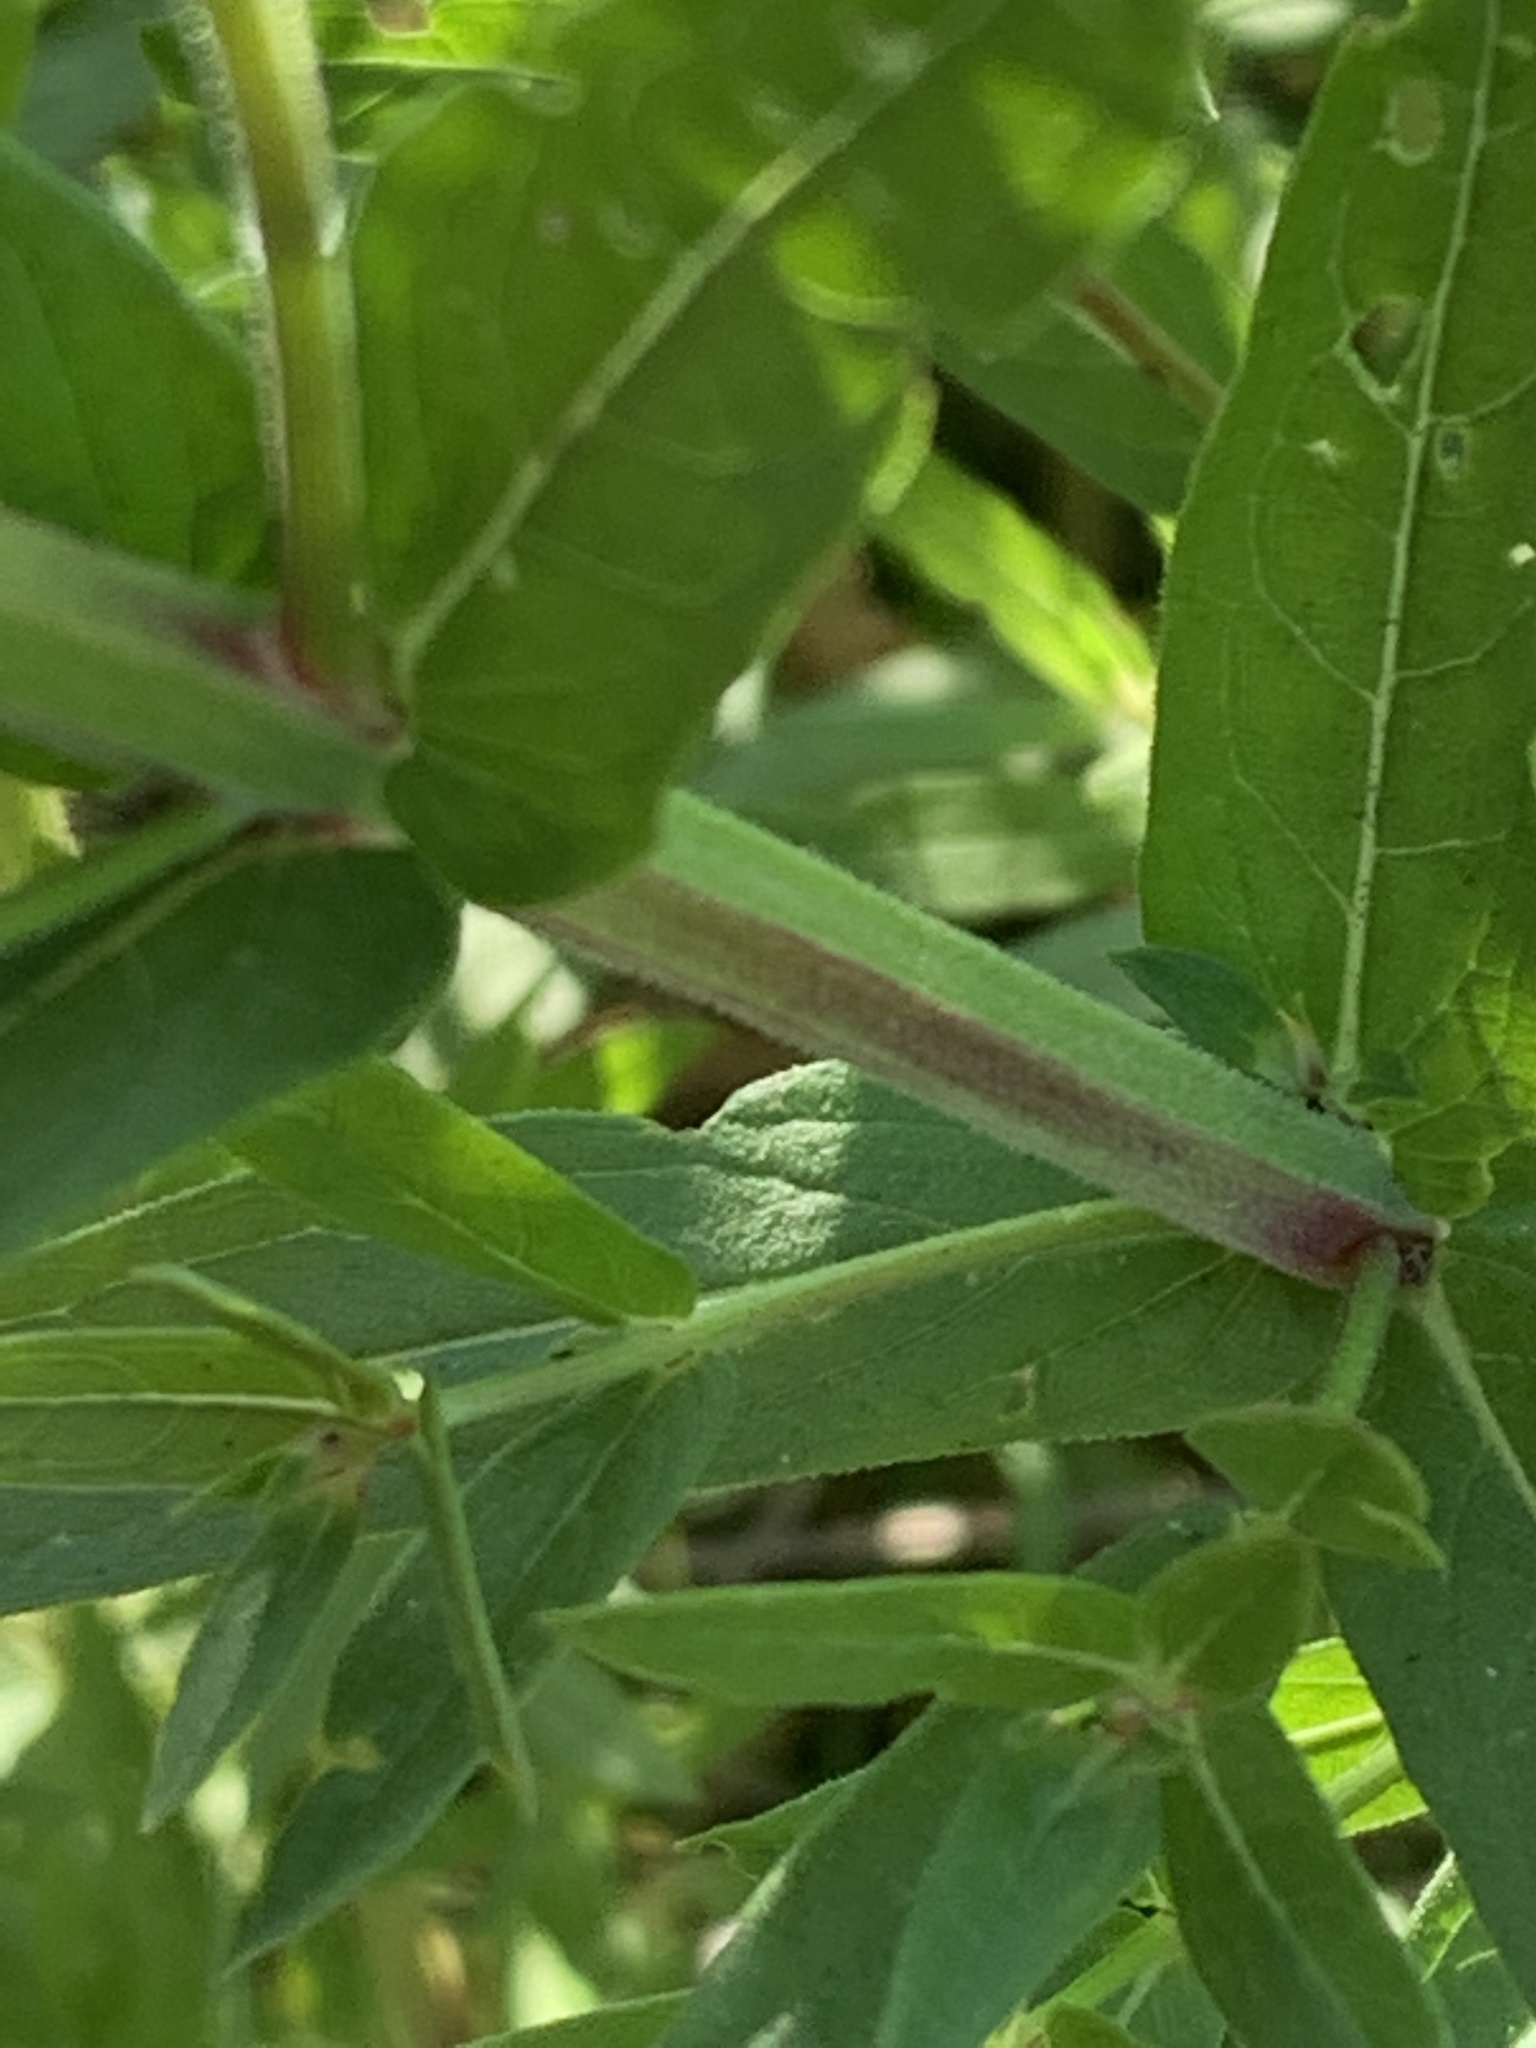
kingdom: Plantae
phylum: Tracheophyta
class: Magnoliopsida
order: Myrtales
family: Lythraceae
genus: Lythrum
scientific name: Lythrum salicaria
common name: Purple loosestrife
